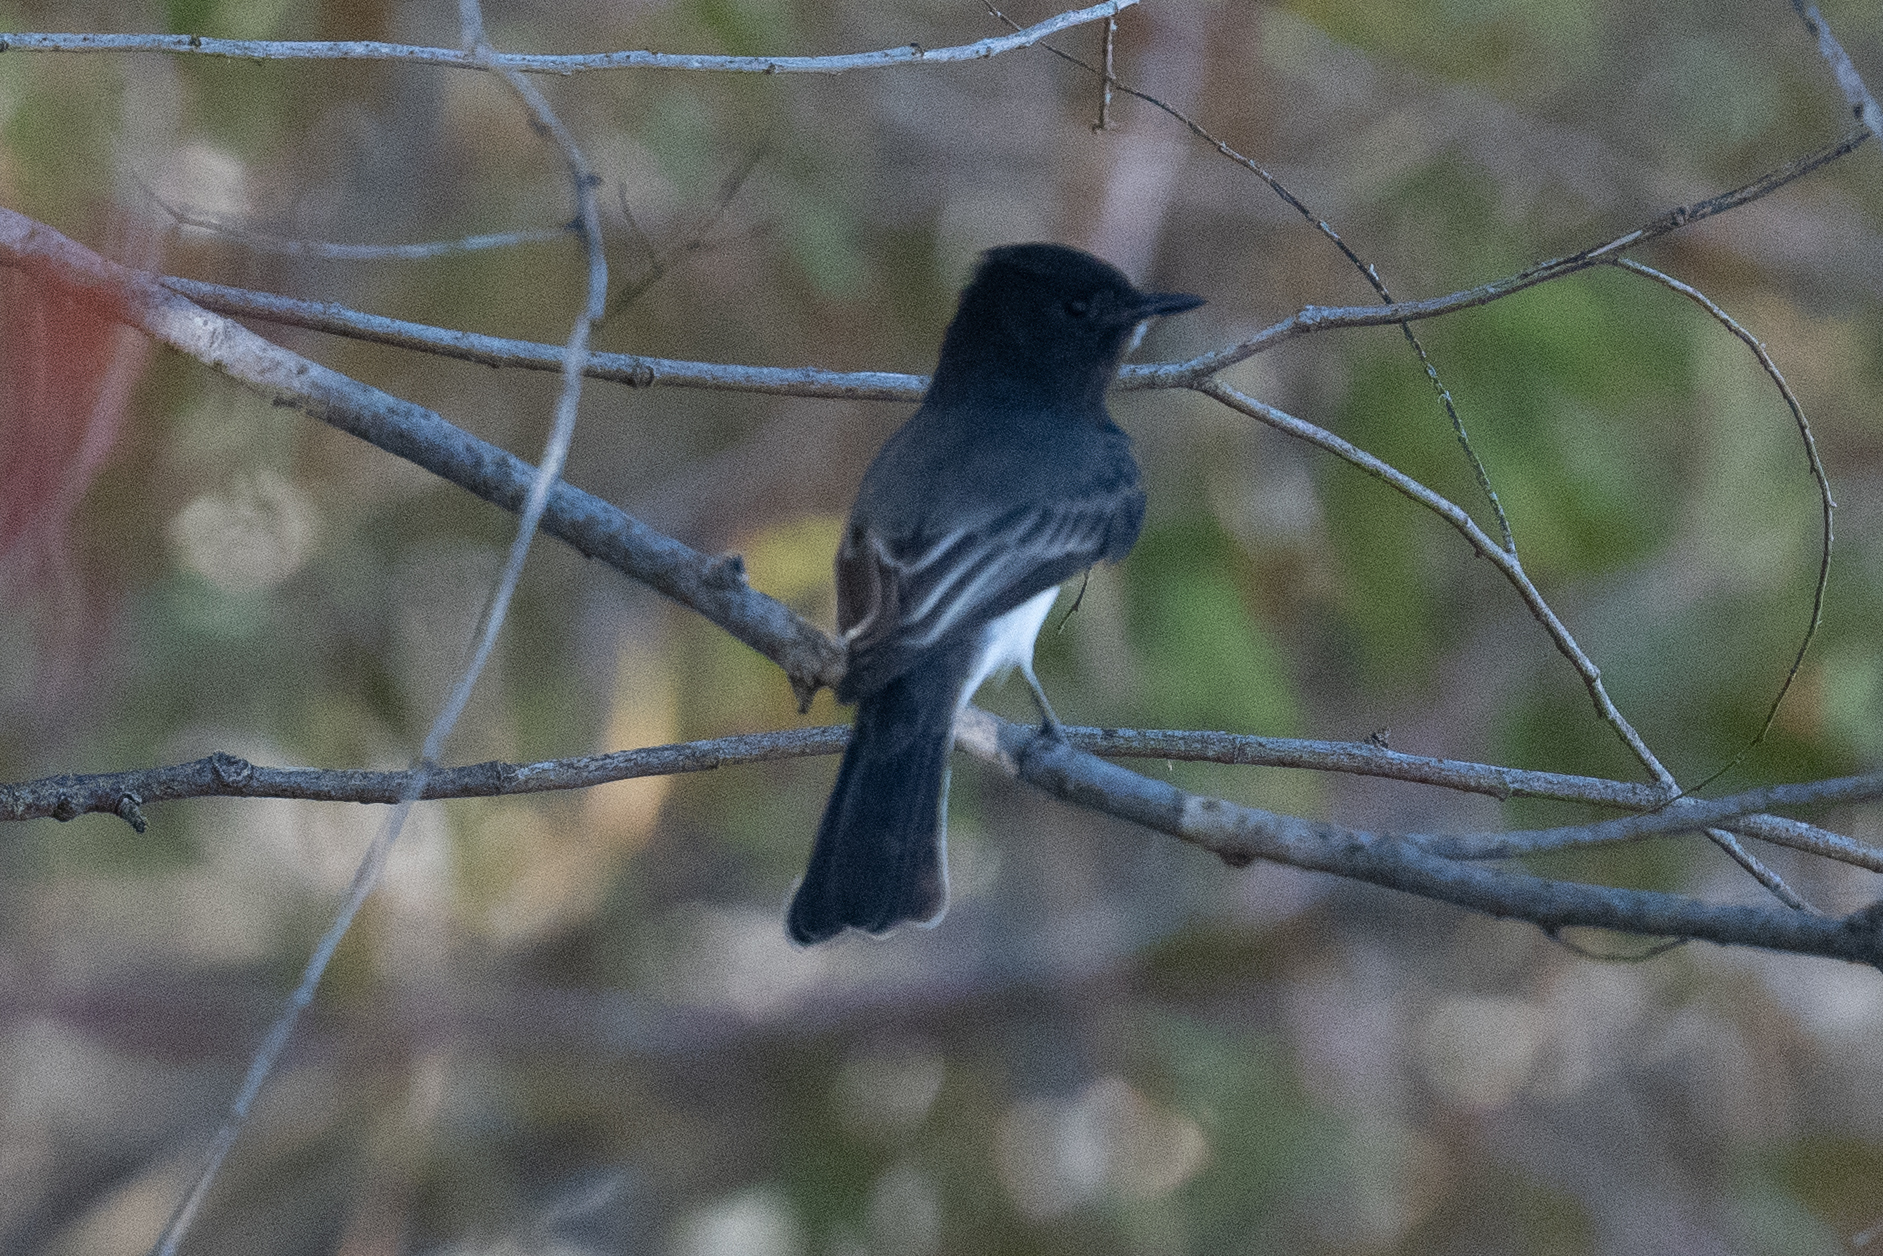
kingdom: Animalia
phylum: Chordata
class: Aves
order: Passeriformes
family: Tyrannidae
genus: Sayornis
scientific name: Sayornis nigricans
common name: Black phoebe
